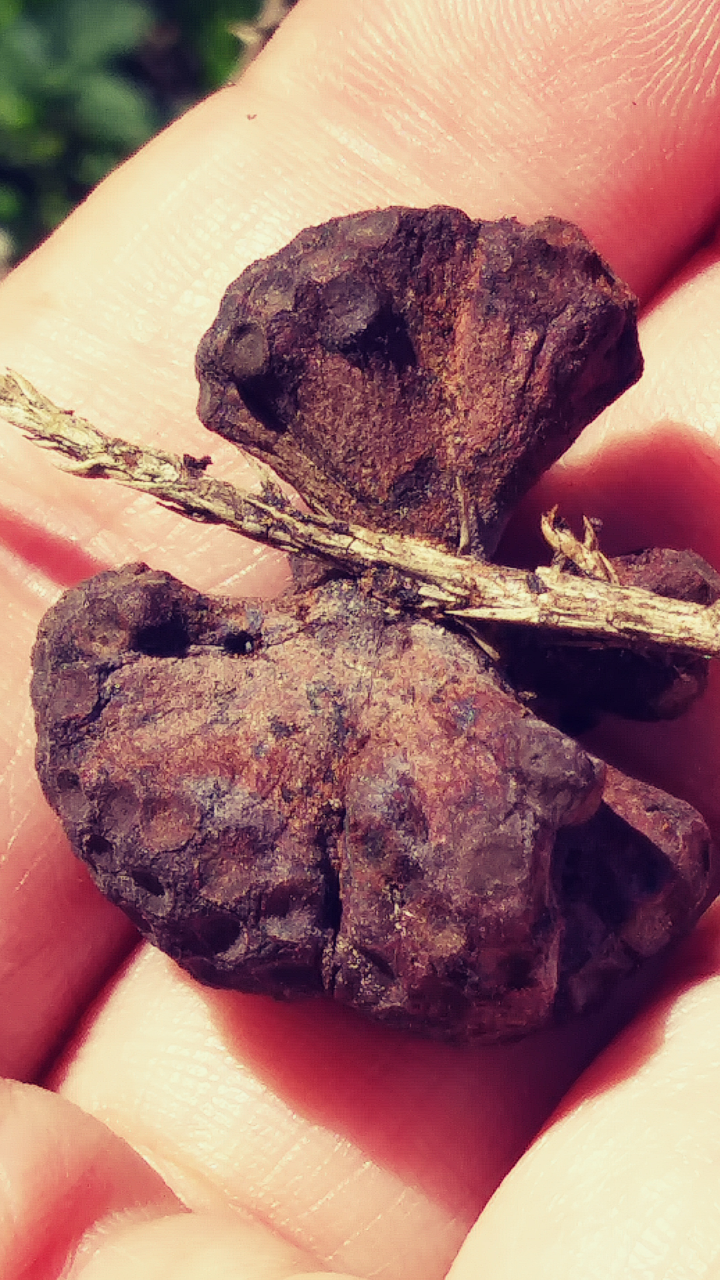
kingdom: Fungi
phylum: Basidiomycota
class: Pucciniomycetes
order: Pucciniales
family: Gymnosporangiaceae
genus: Gymnosporangium
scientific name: Gymnosporangium juniperi-virginianae
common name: Juniper-apple rust
